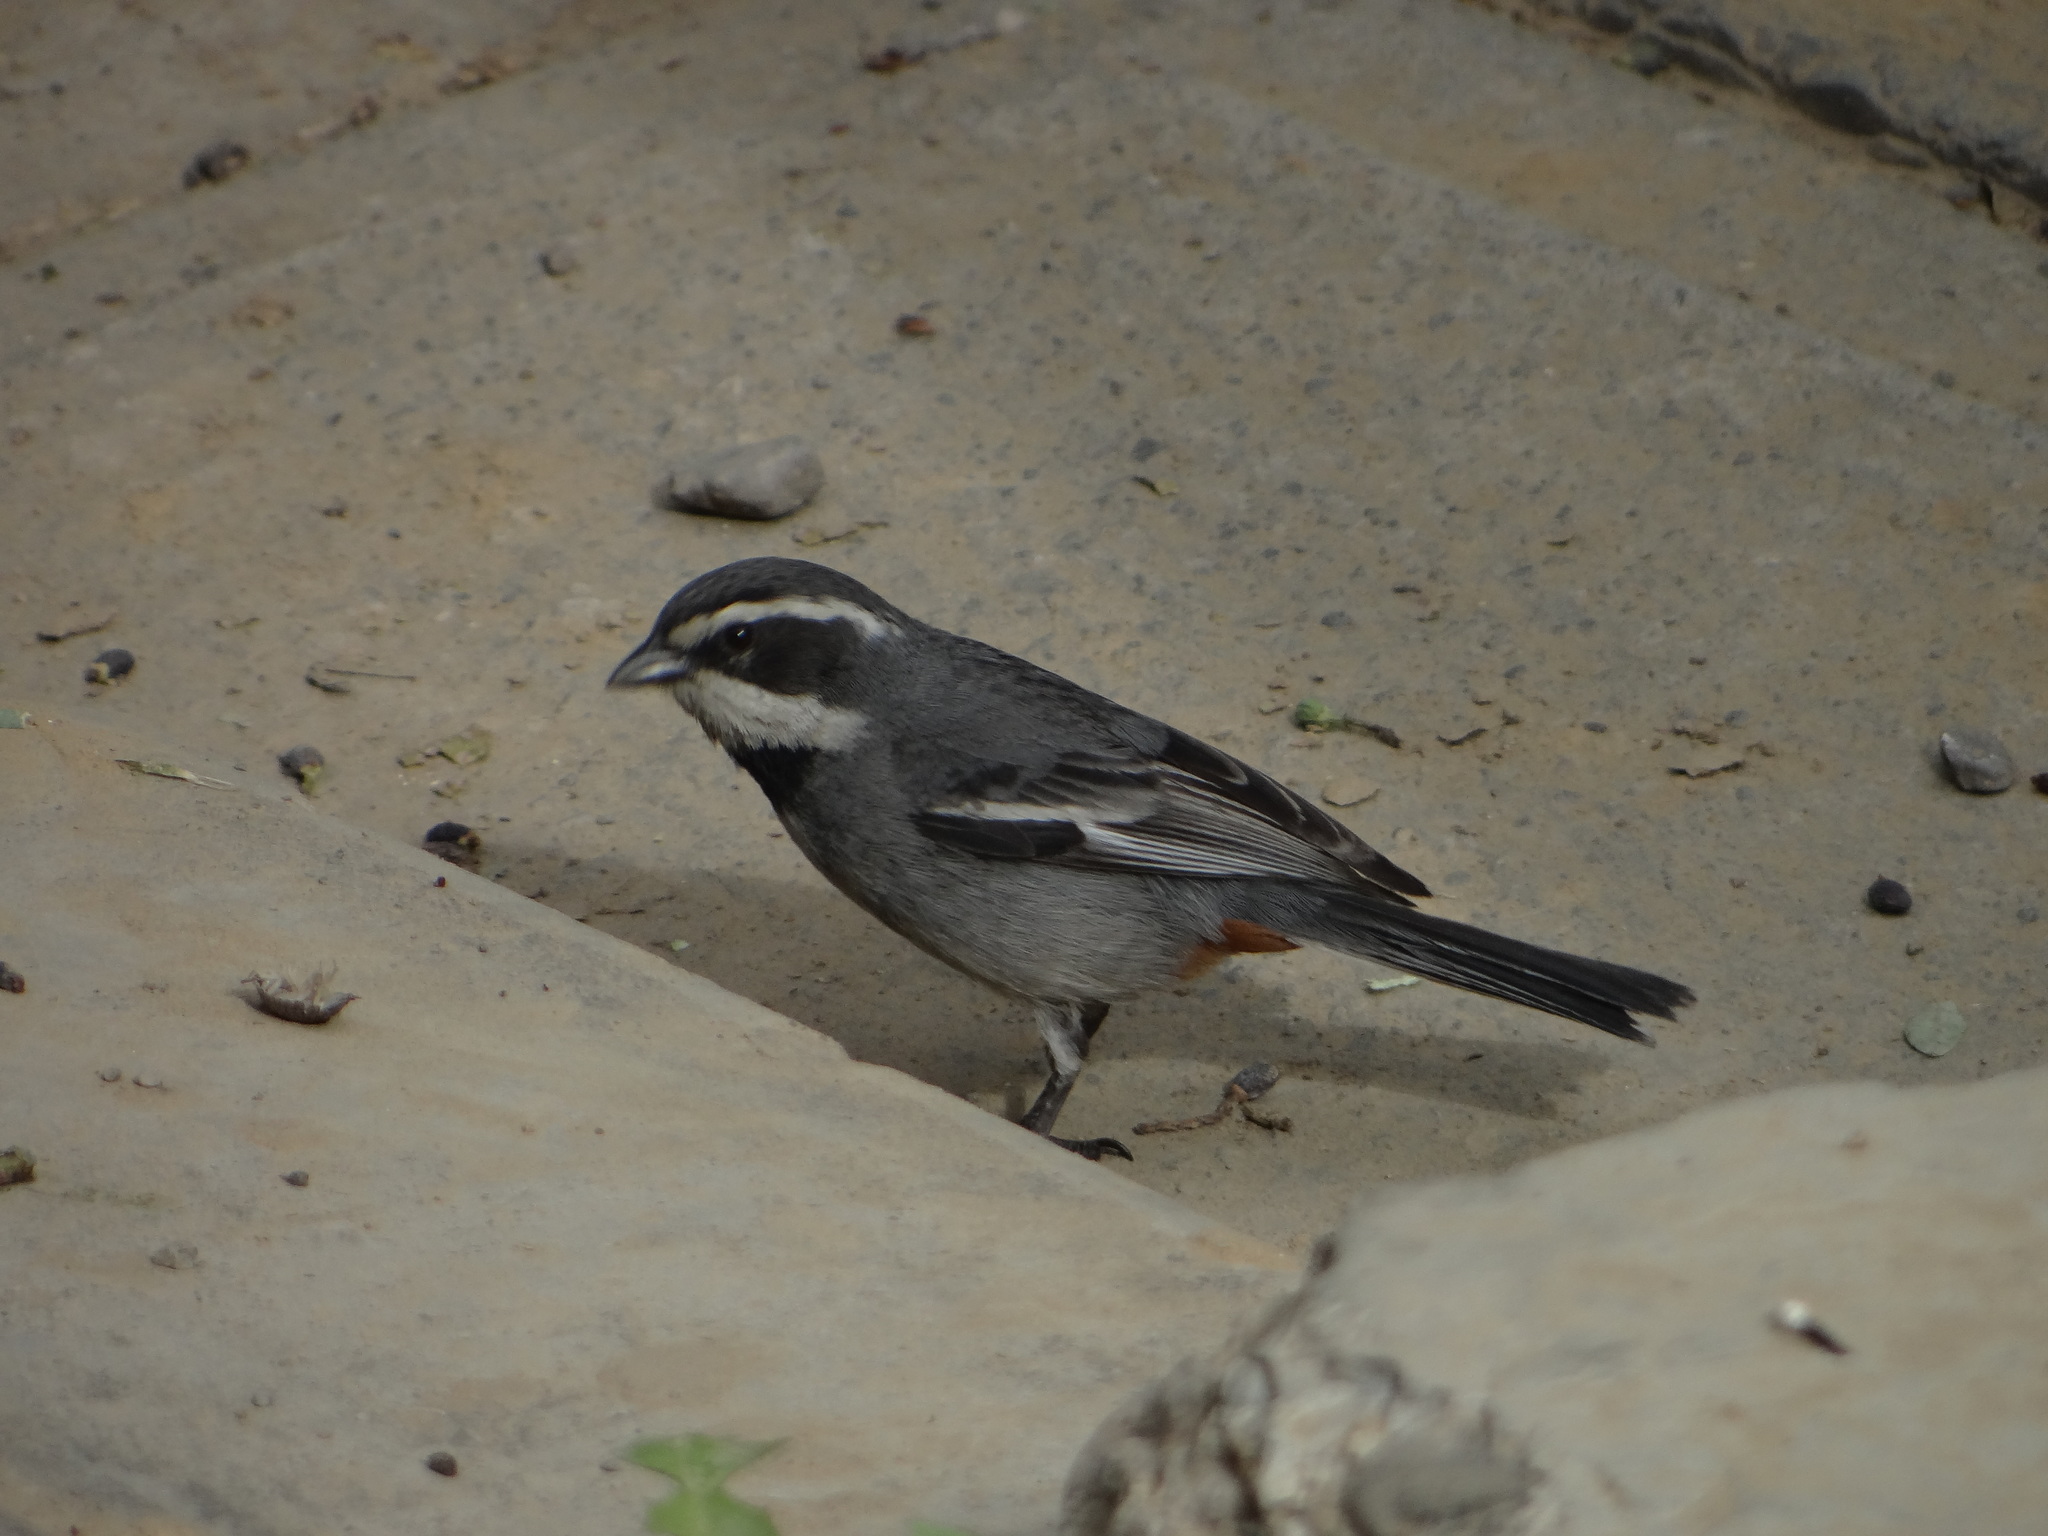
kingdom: Animalia
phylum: Chordata
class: Aves
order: Passeriformes
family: Thraupidae
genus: Microspingus
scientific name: Microspingus torquatus
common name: Ringed warbling-finch
